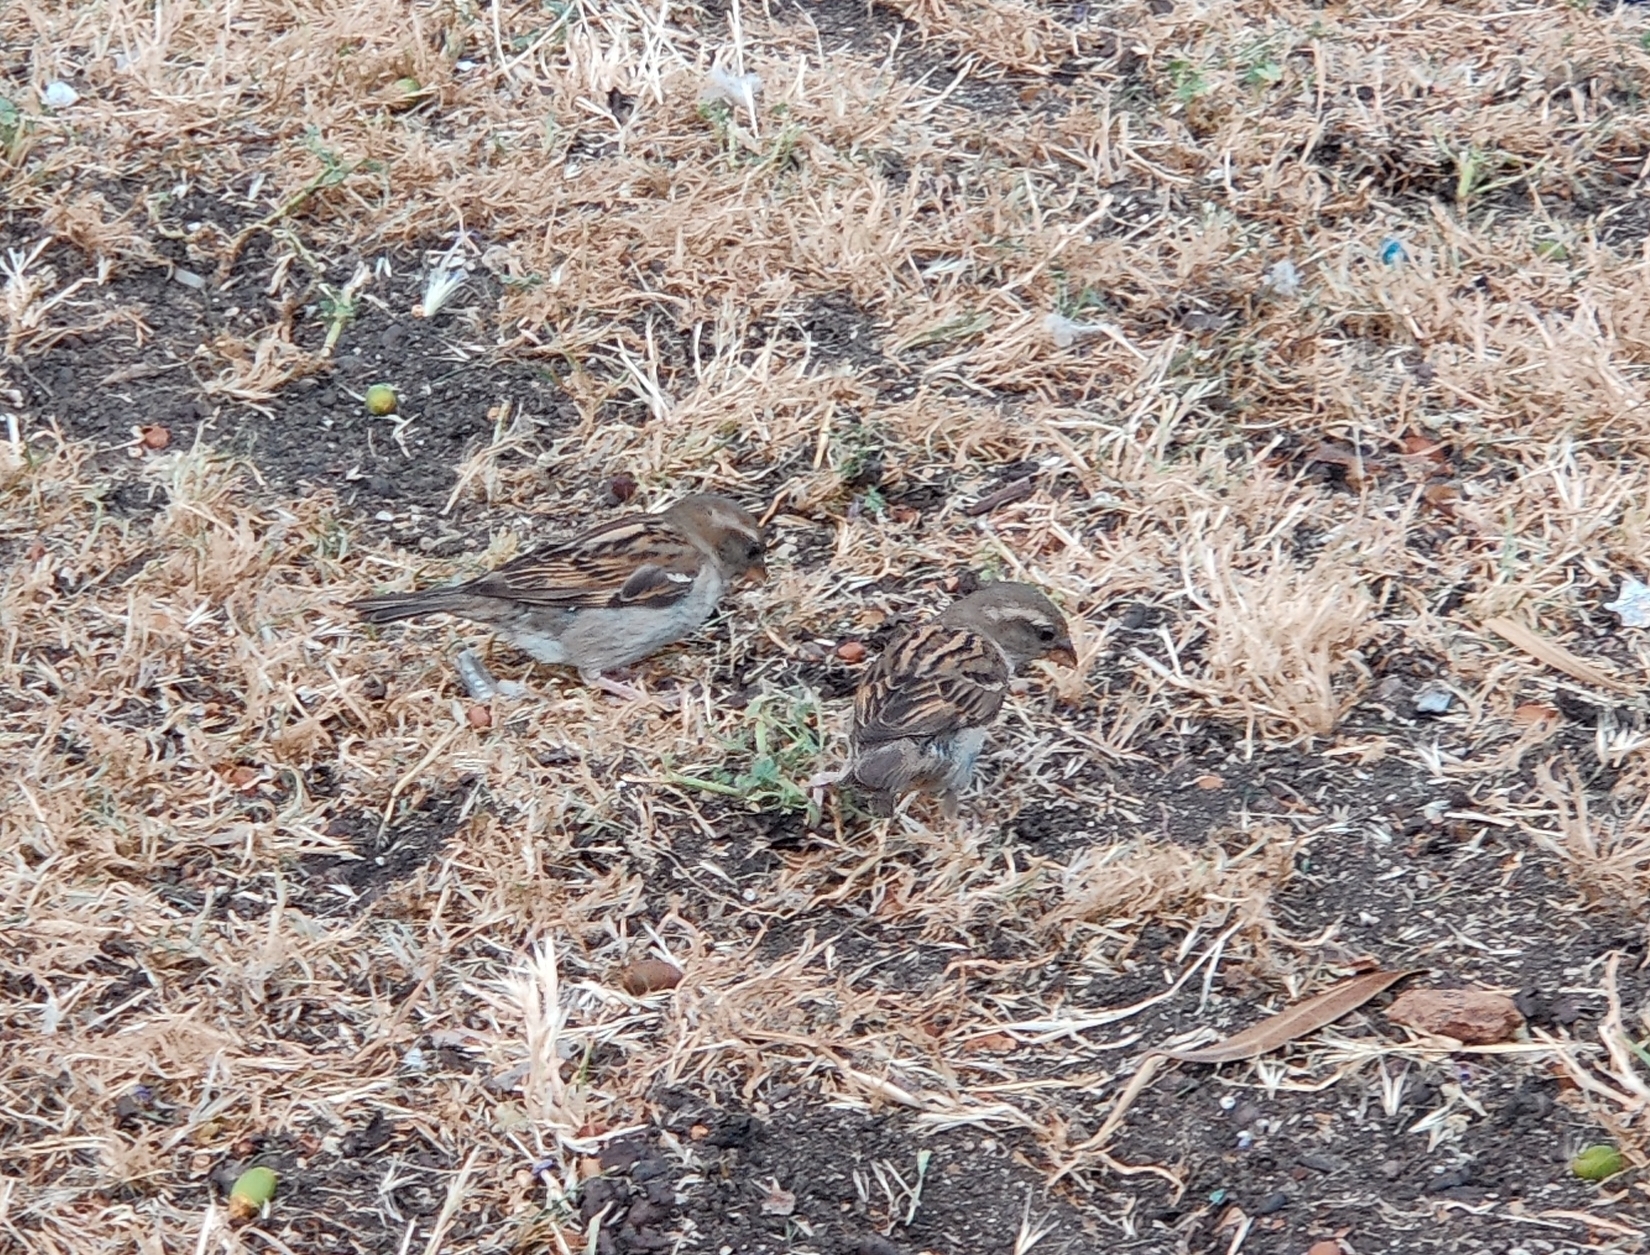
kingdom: Animalia
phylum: Chordata
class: Aves
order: Passeriformes
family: Passeridae
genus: Passer
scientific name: Passer domesticus
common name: House sparrow
